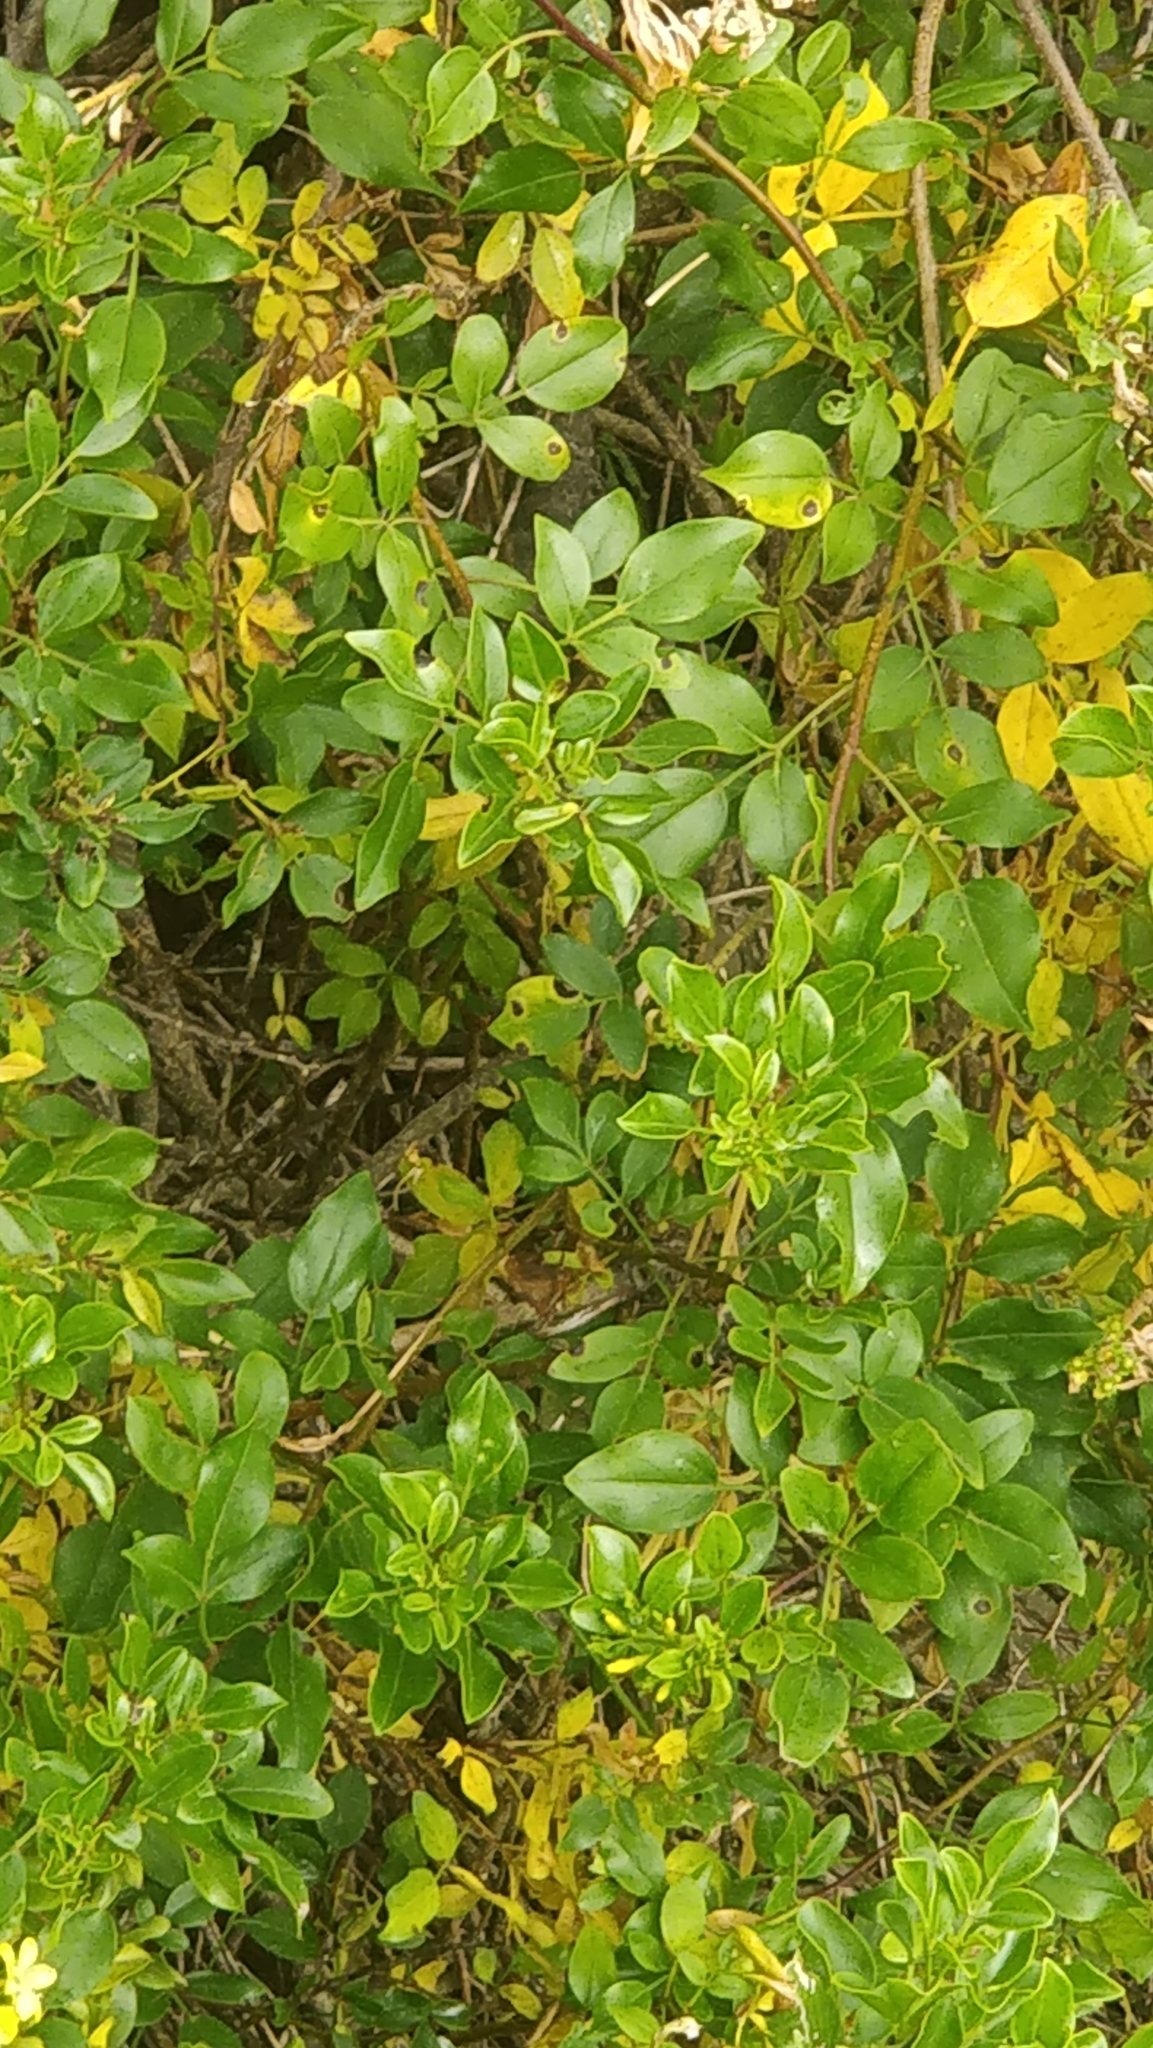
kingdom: Plantae
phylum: Tracheophyta
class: Magnoliopsida
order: Lamiales
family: Oleaceae
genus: Chrysojasminum
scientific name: Chrysojasminum odoratissimum
